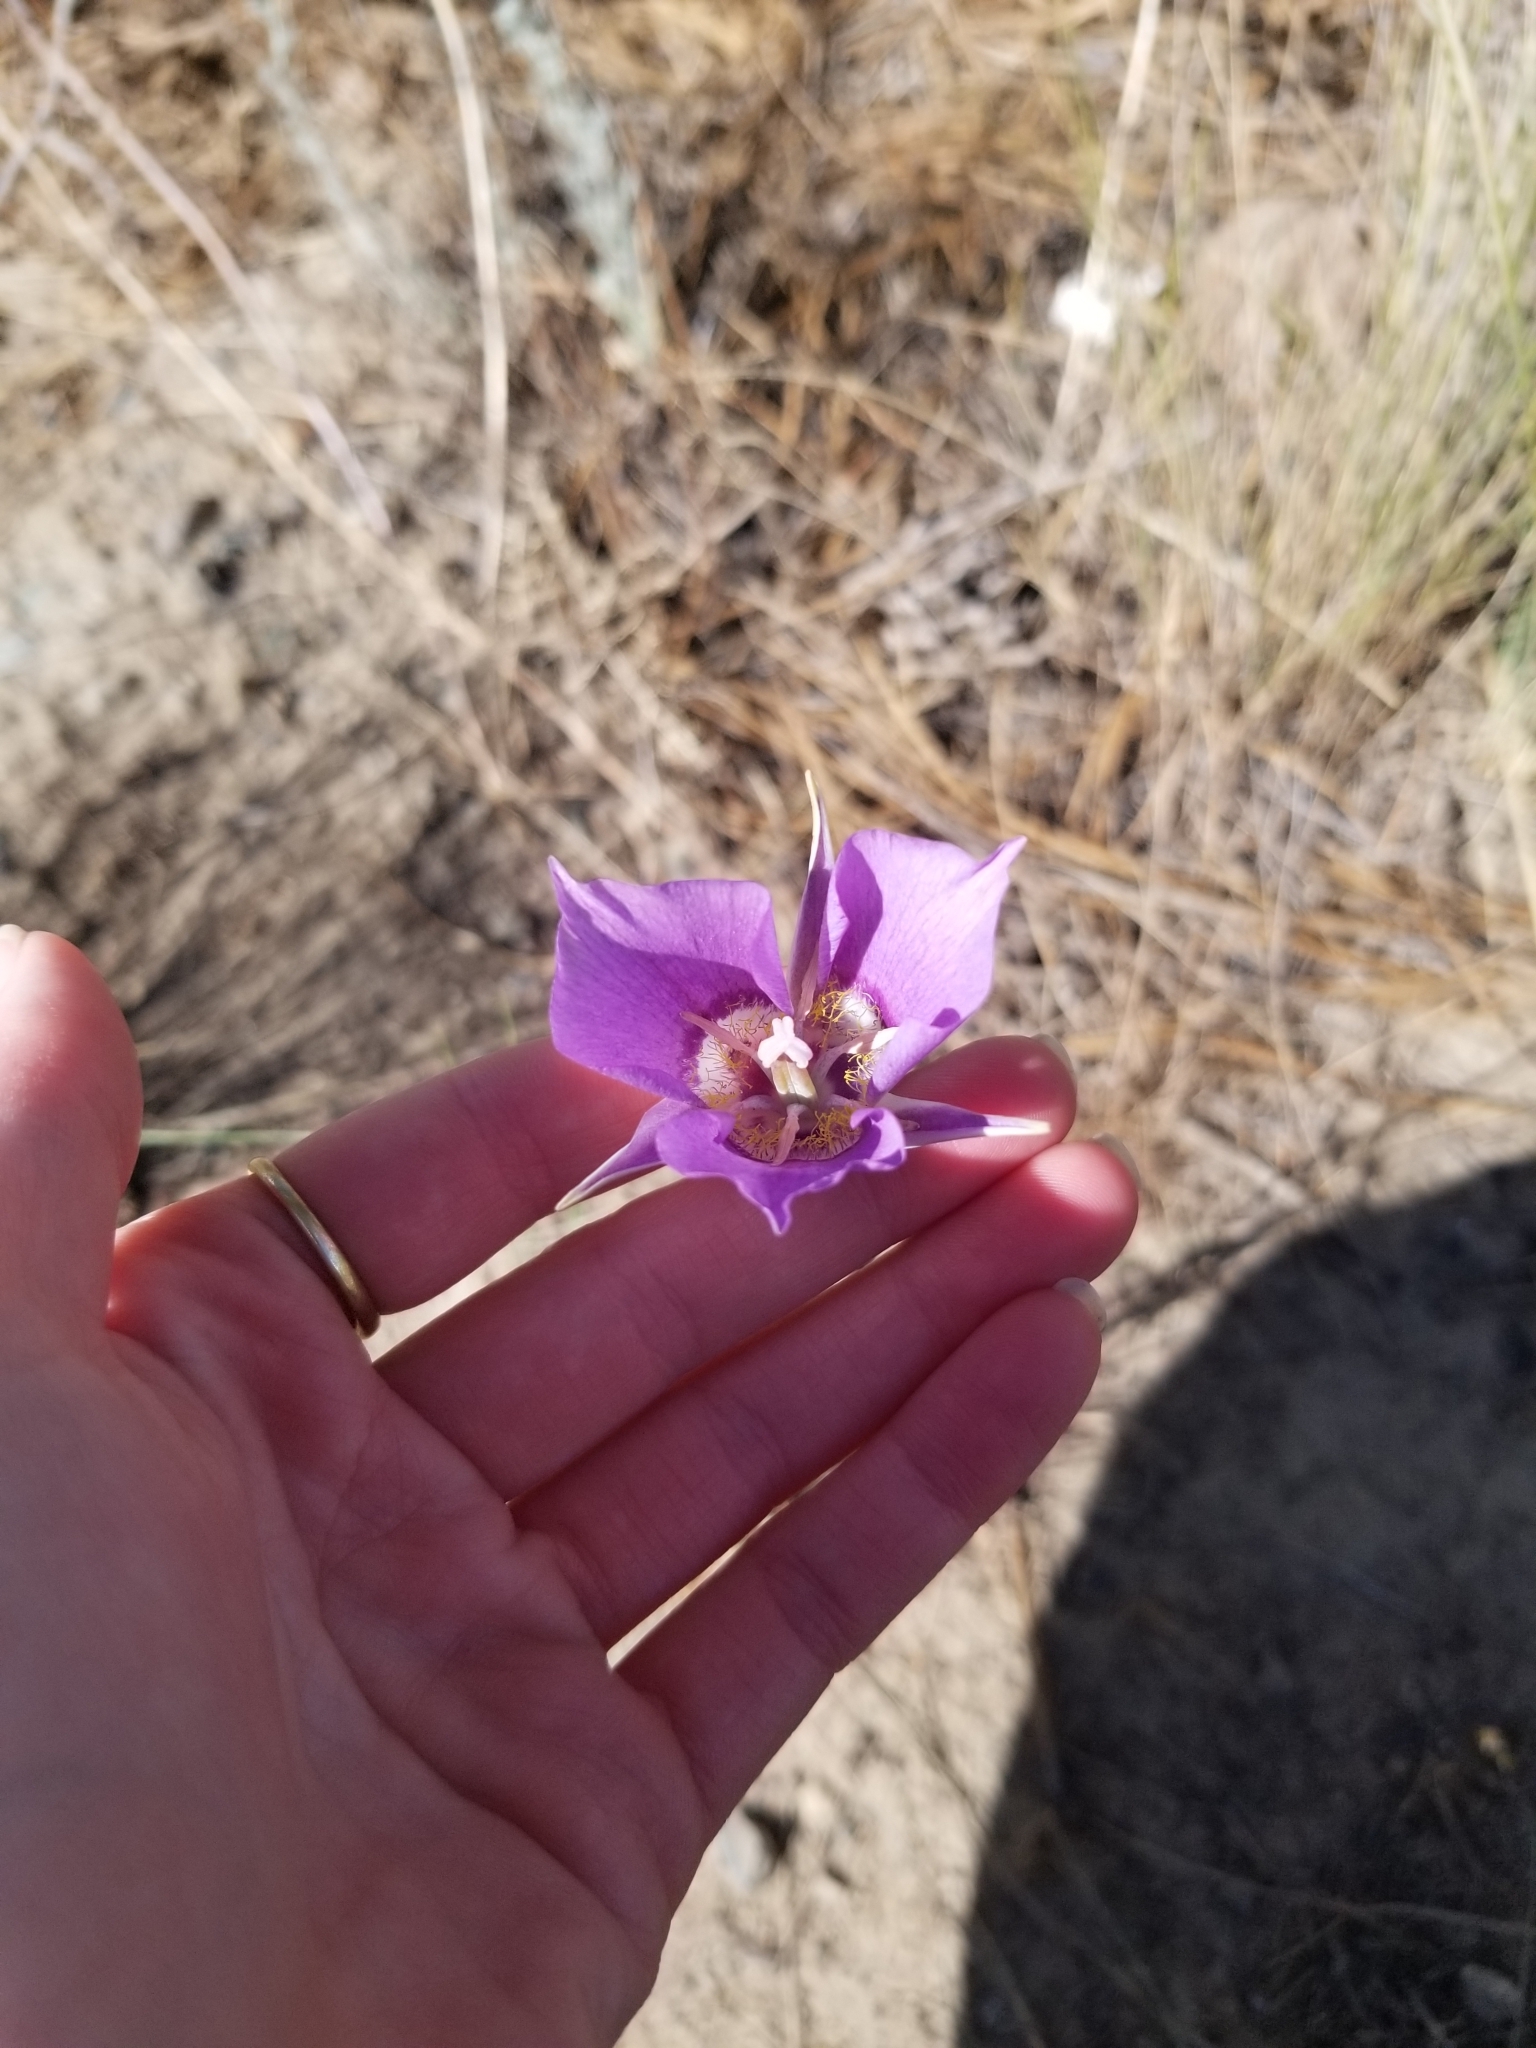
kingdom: Plantae
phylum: Tracheophyta
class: Liliopsida
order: Liliales
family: Liliaceae
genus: Calochortus
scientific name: Calochortus macrocarpus
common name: Green-band mariposa lily
